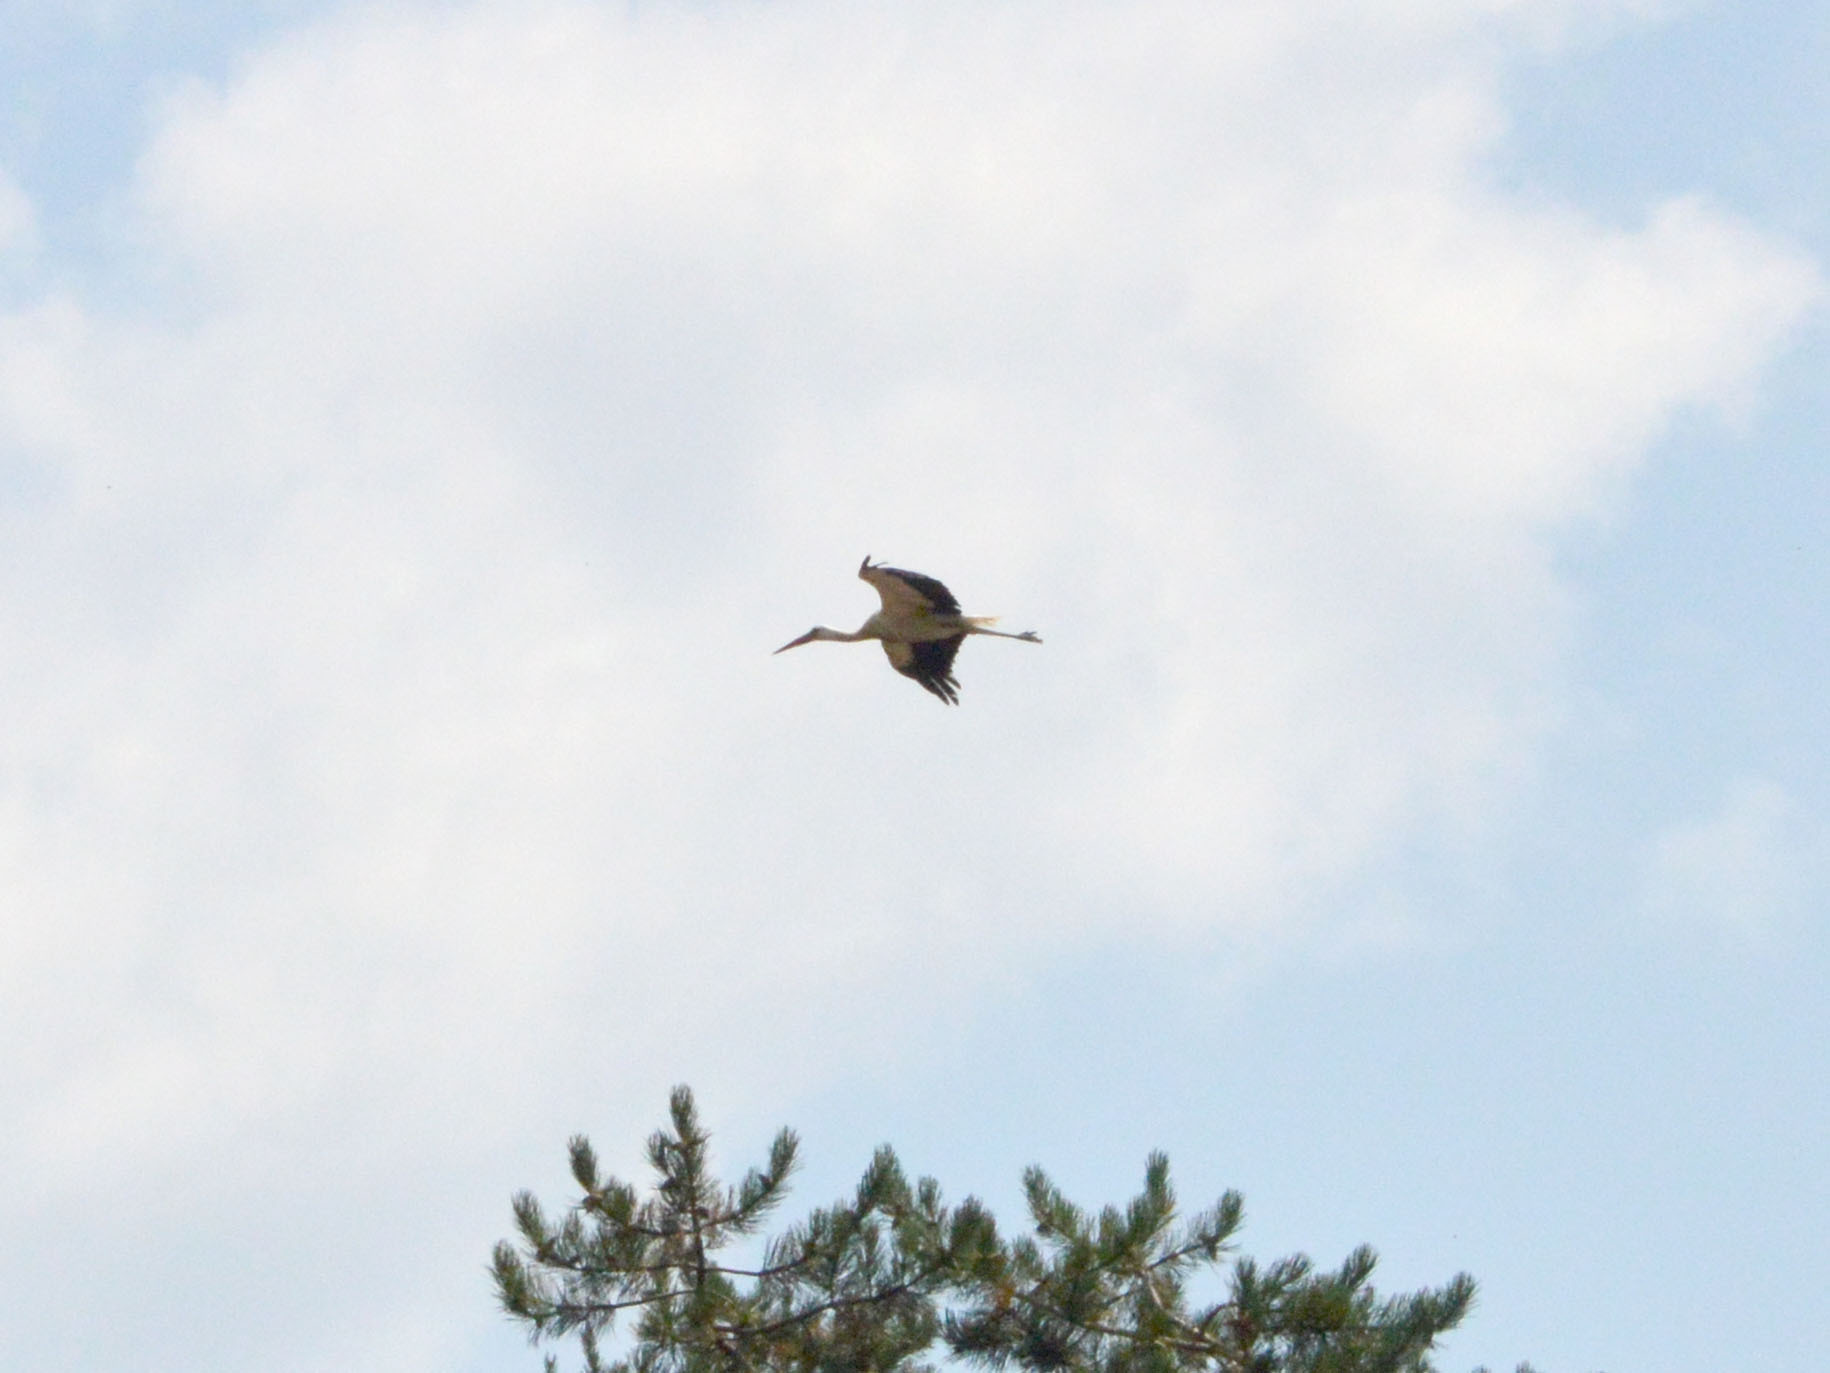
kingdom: Animalia
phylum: Chordata
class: Aves
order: Ciconiiformes
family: Ciconiidae
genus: Ciconia
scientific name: Ciconia ciconia
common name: White stork
